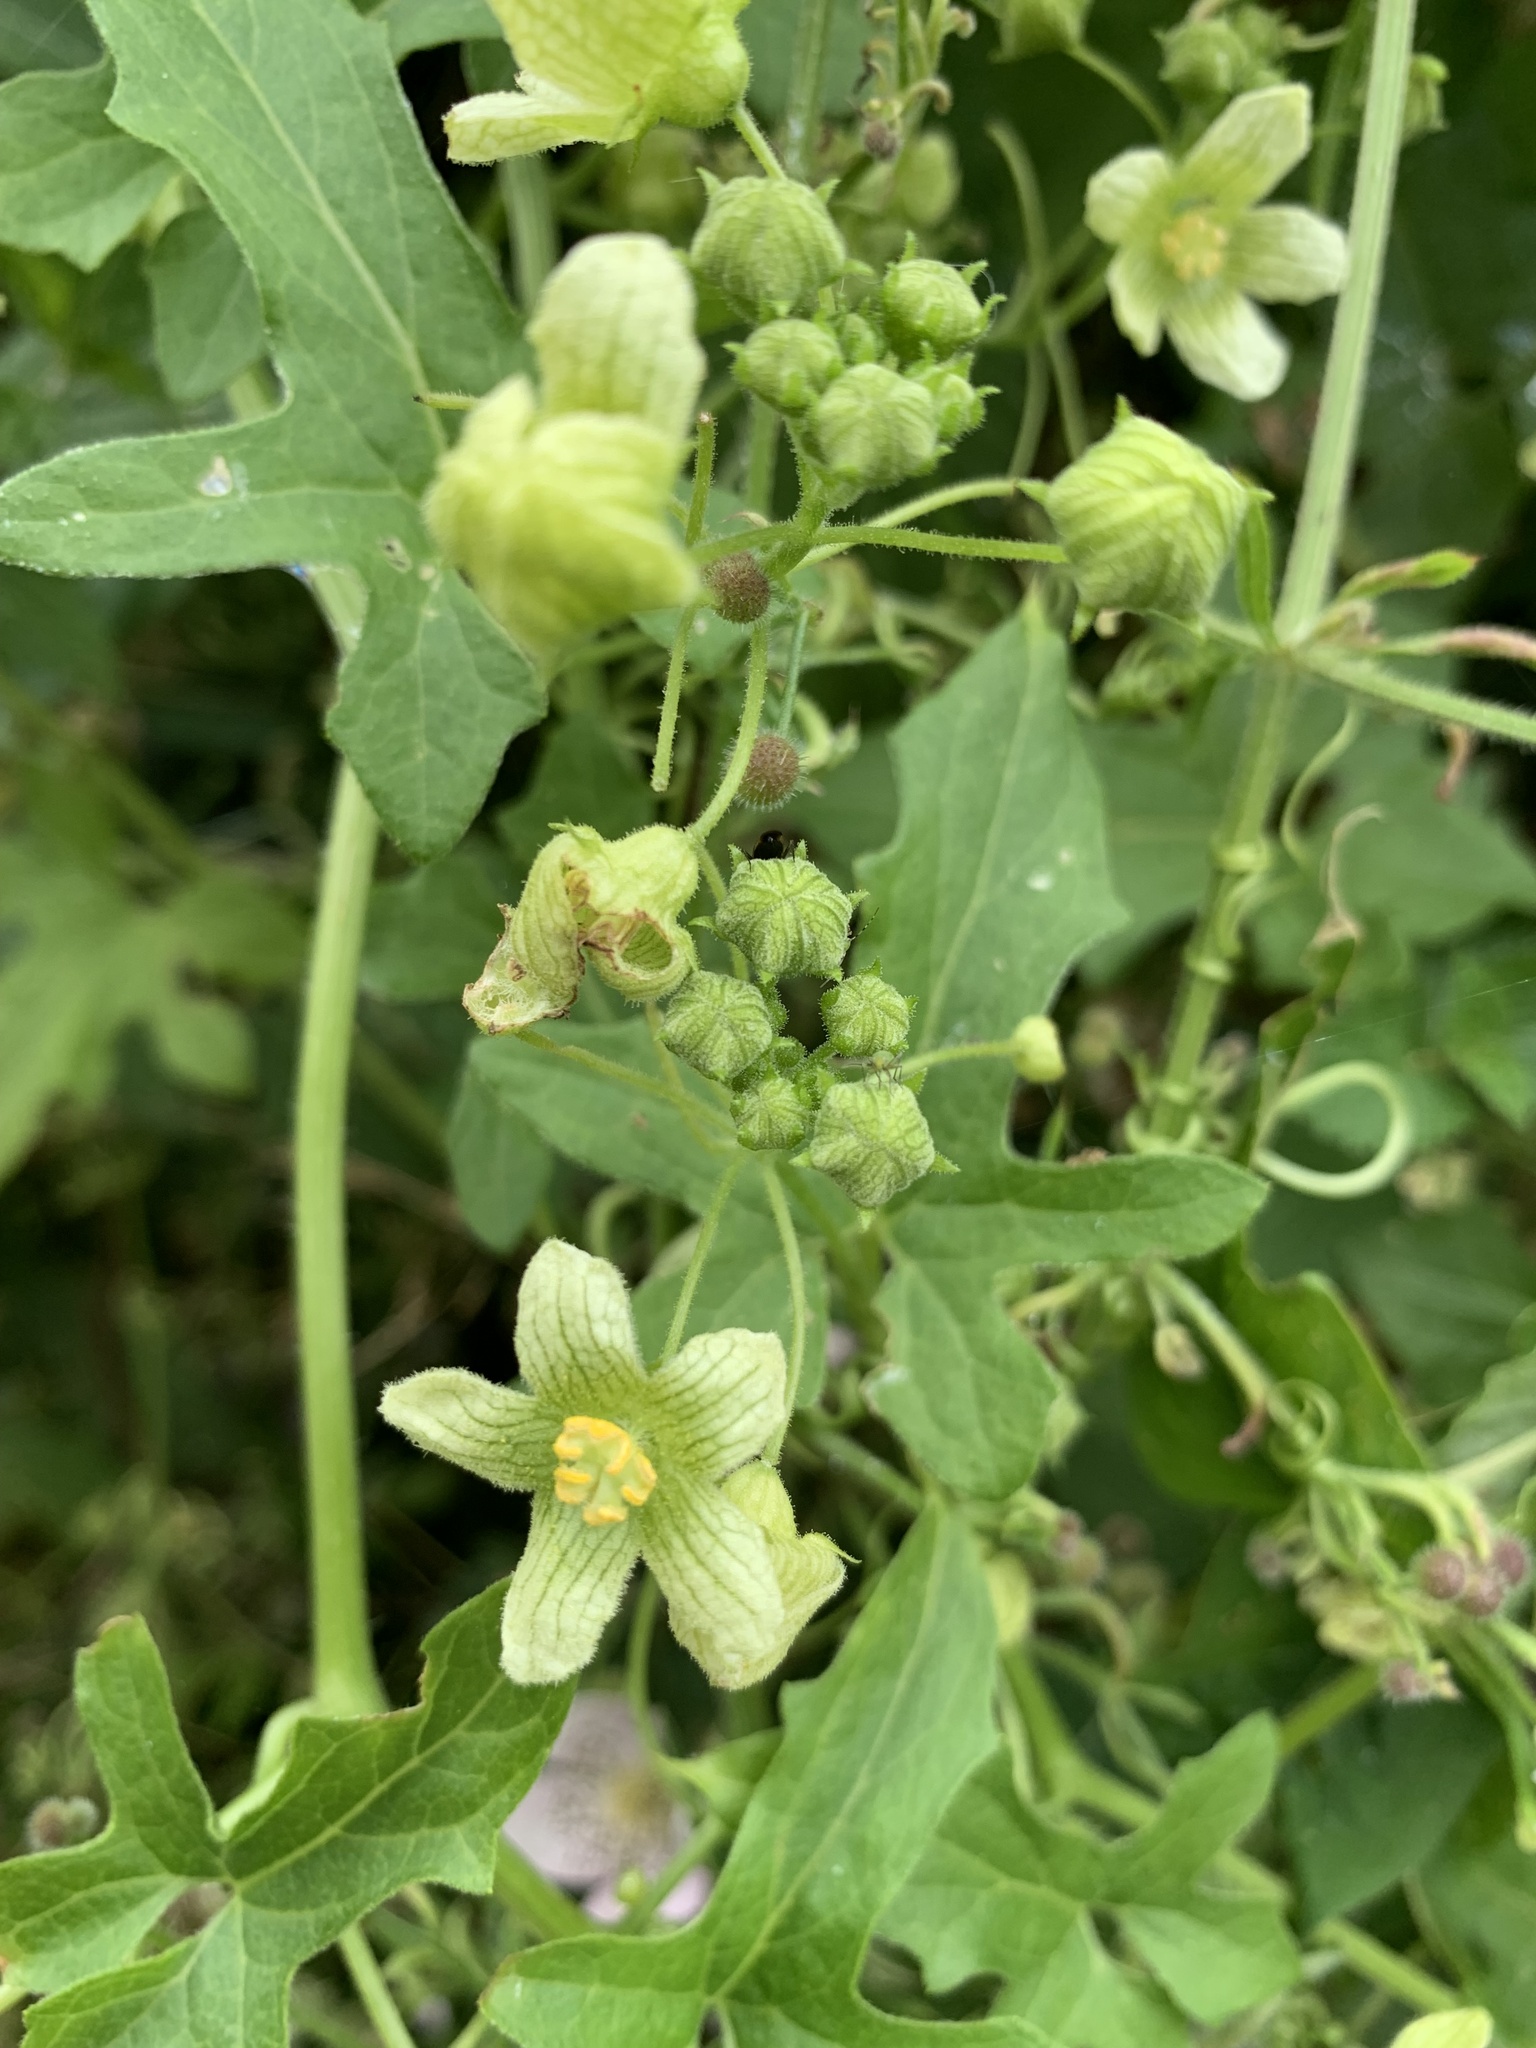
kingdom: Plantae
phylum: Tracheophyta
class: Magnoliopsida
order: Cucurbitales
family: Cucurbitaceae
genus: Bryonia
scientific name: Bryonia cretica
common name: Cretan bryony
